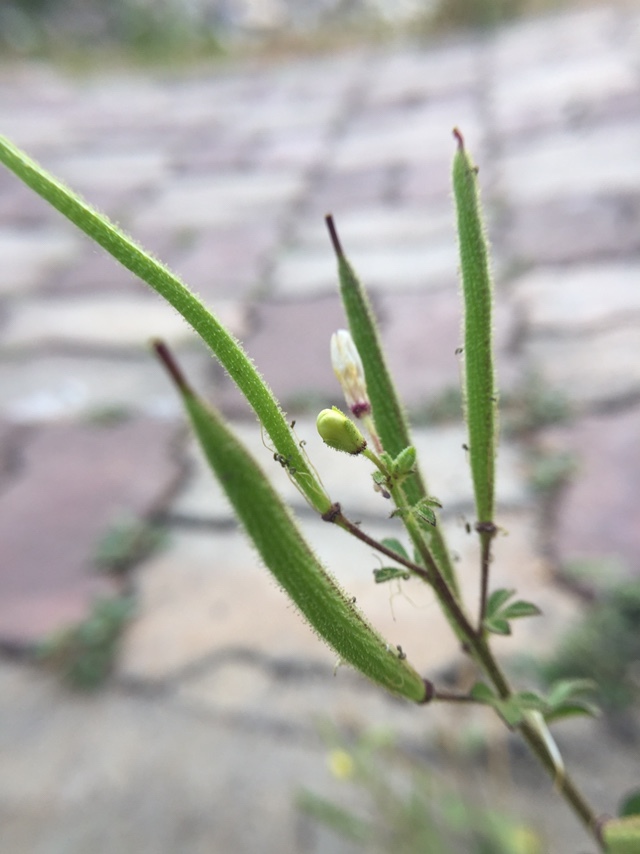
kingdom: Plantae
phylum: Tracheophyta
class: Magnoliopsida
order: Brassicales
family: Cleomaceae
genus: Arivela
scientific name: Arivela viscosa
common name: Asian spiderflower
